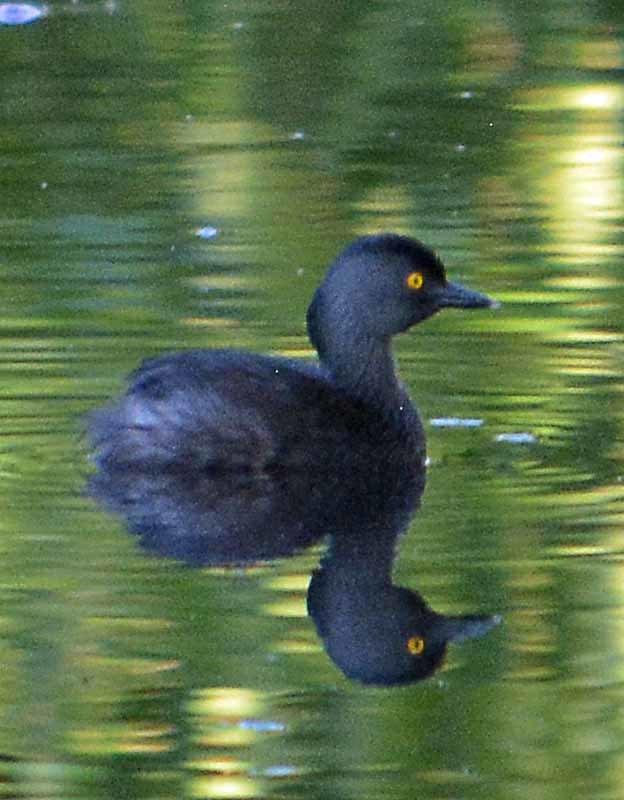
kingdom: Animalia
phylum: Chordata
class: Aves
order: Podicipediformes
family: Podicipedidae
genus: Tachybaptus
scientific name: Tachybaptus dominicus
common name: Least grebe
